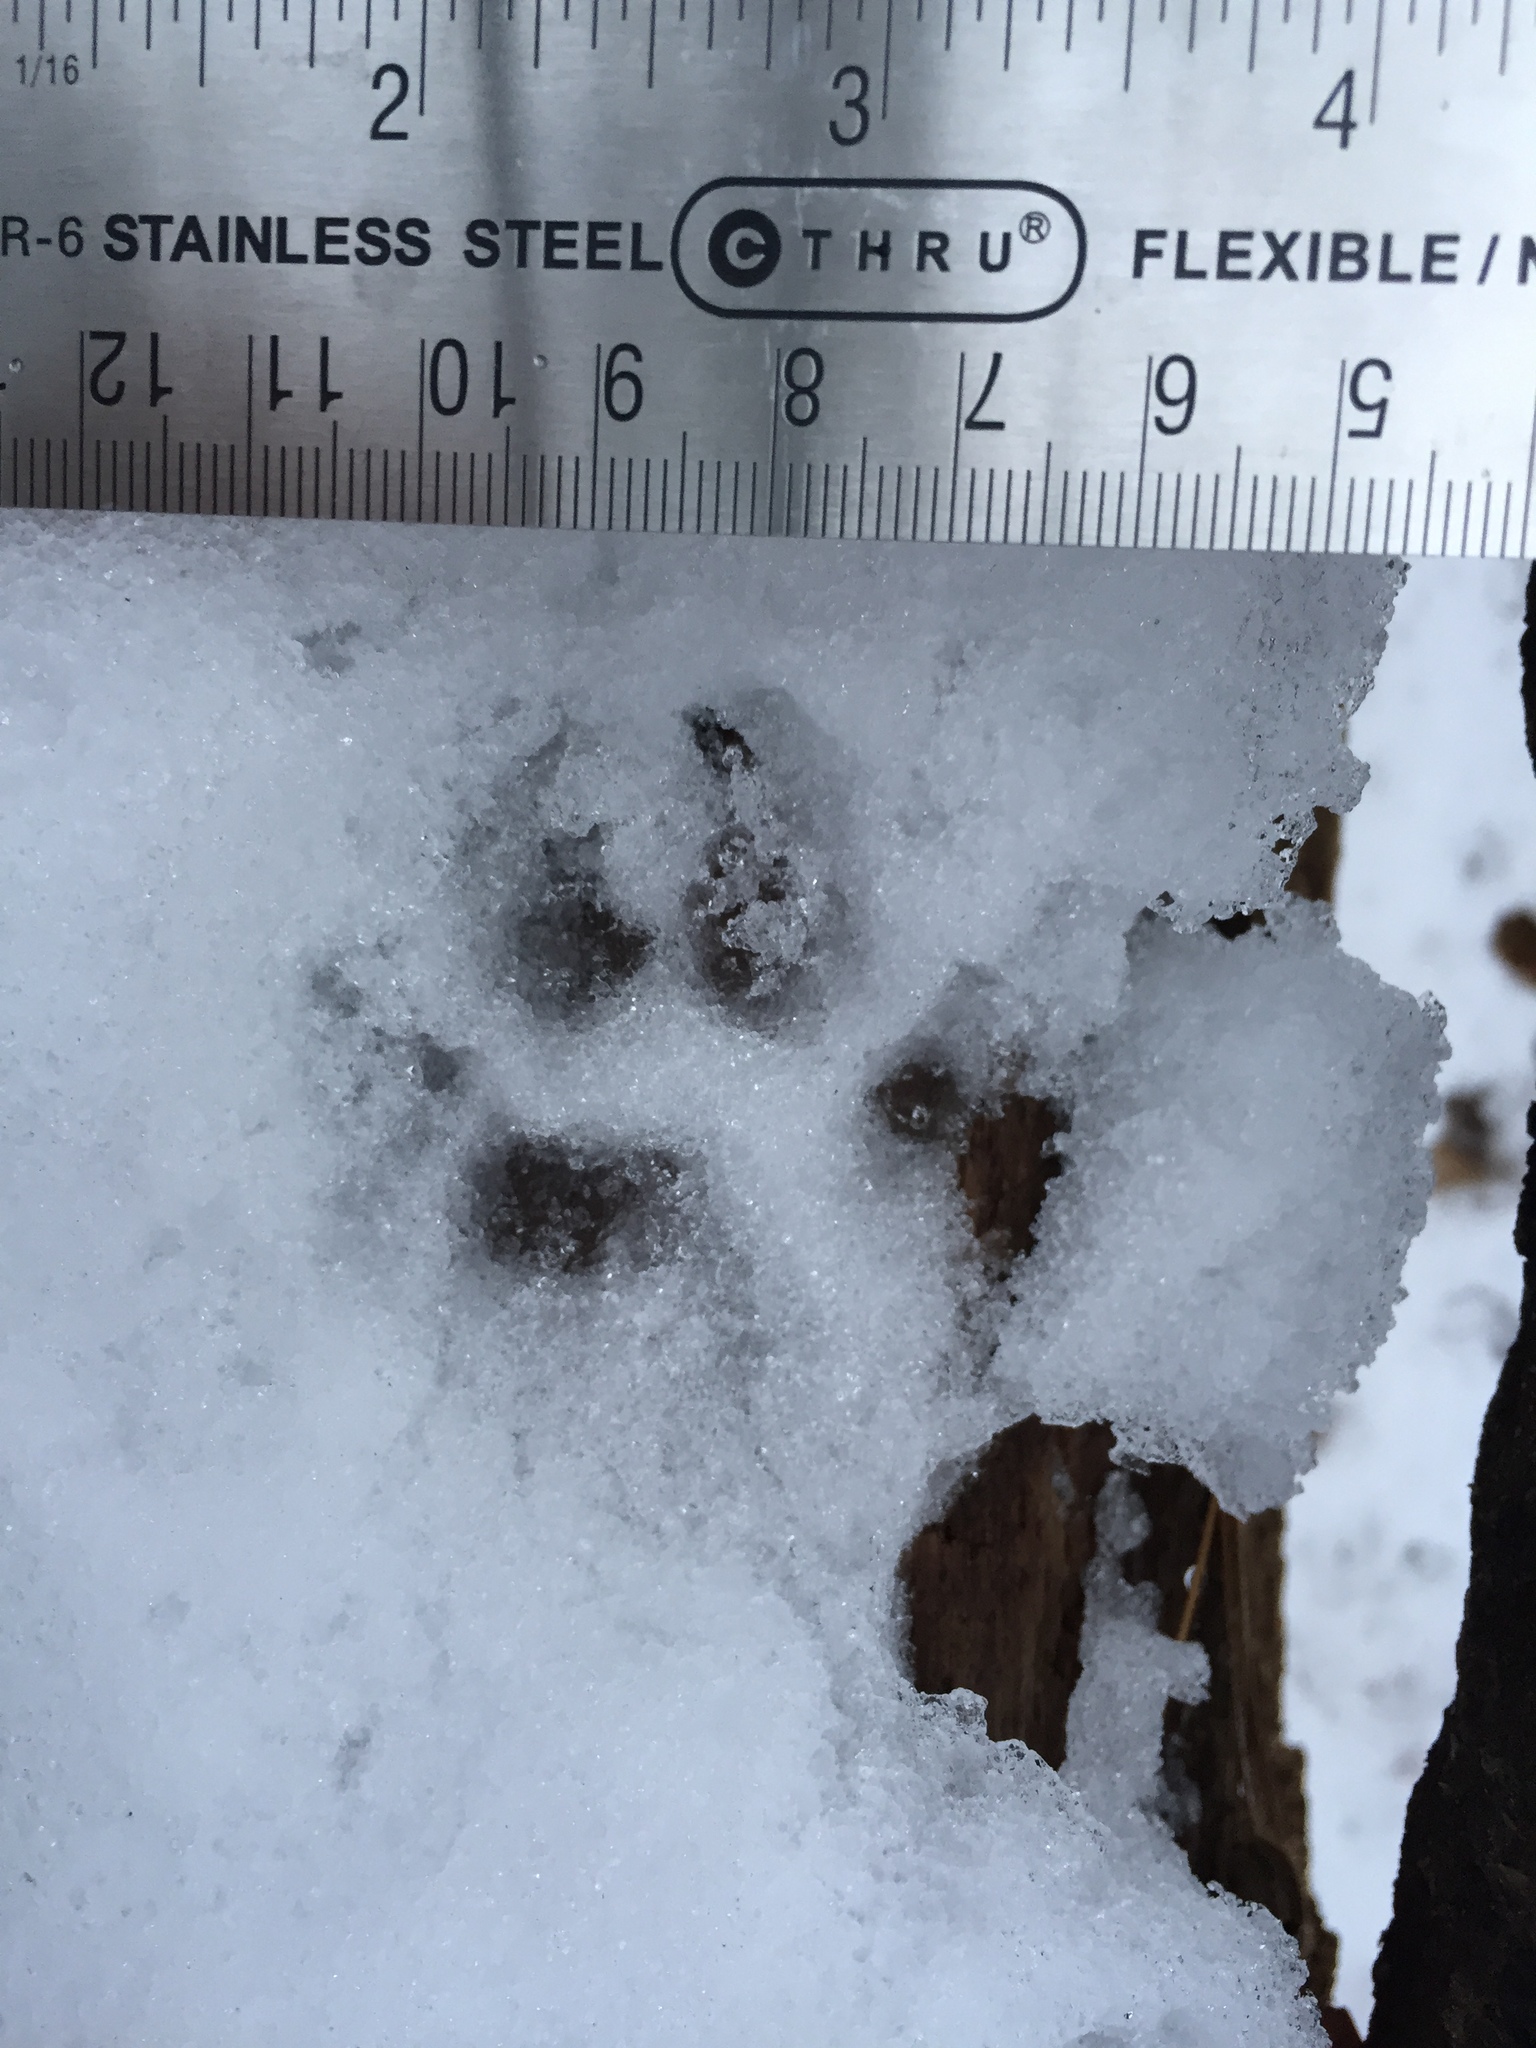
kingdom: Animalia
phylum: Chordata
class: Mammalia
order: Carnivora
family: Canidae
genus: Canis
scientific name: Canis latrans
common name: Coyote
